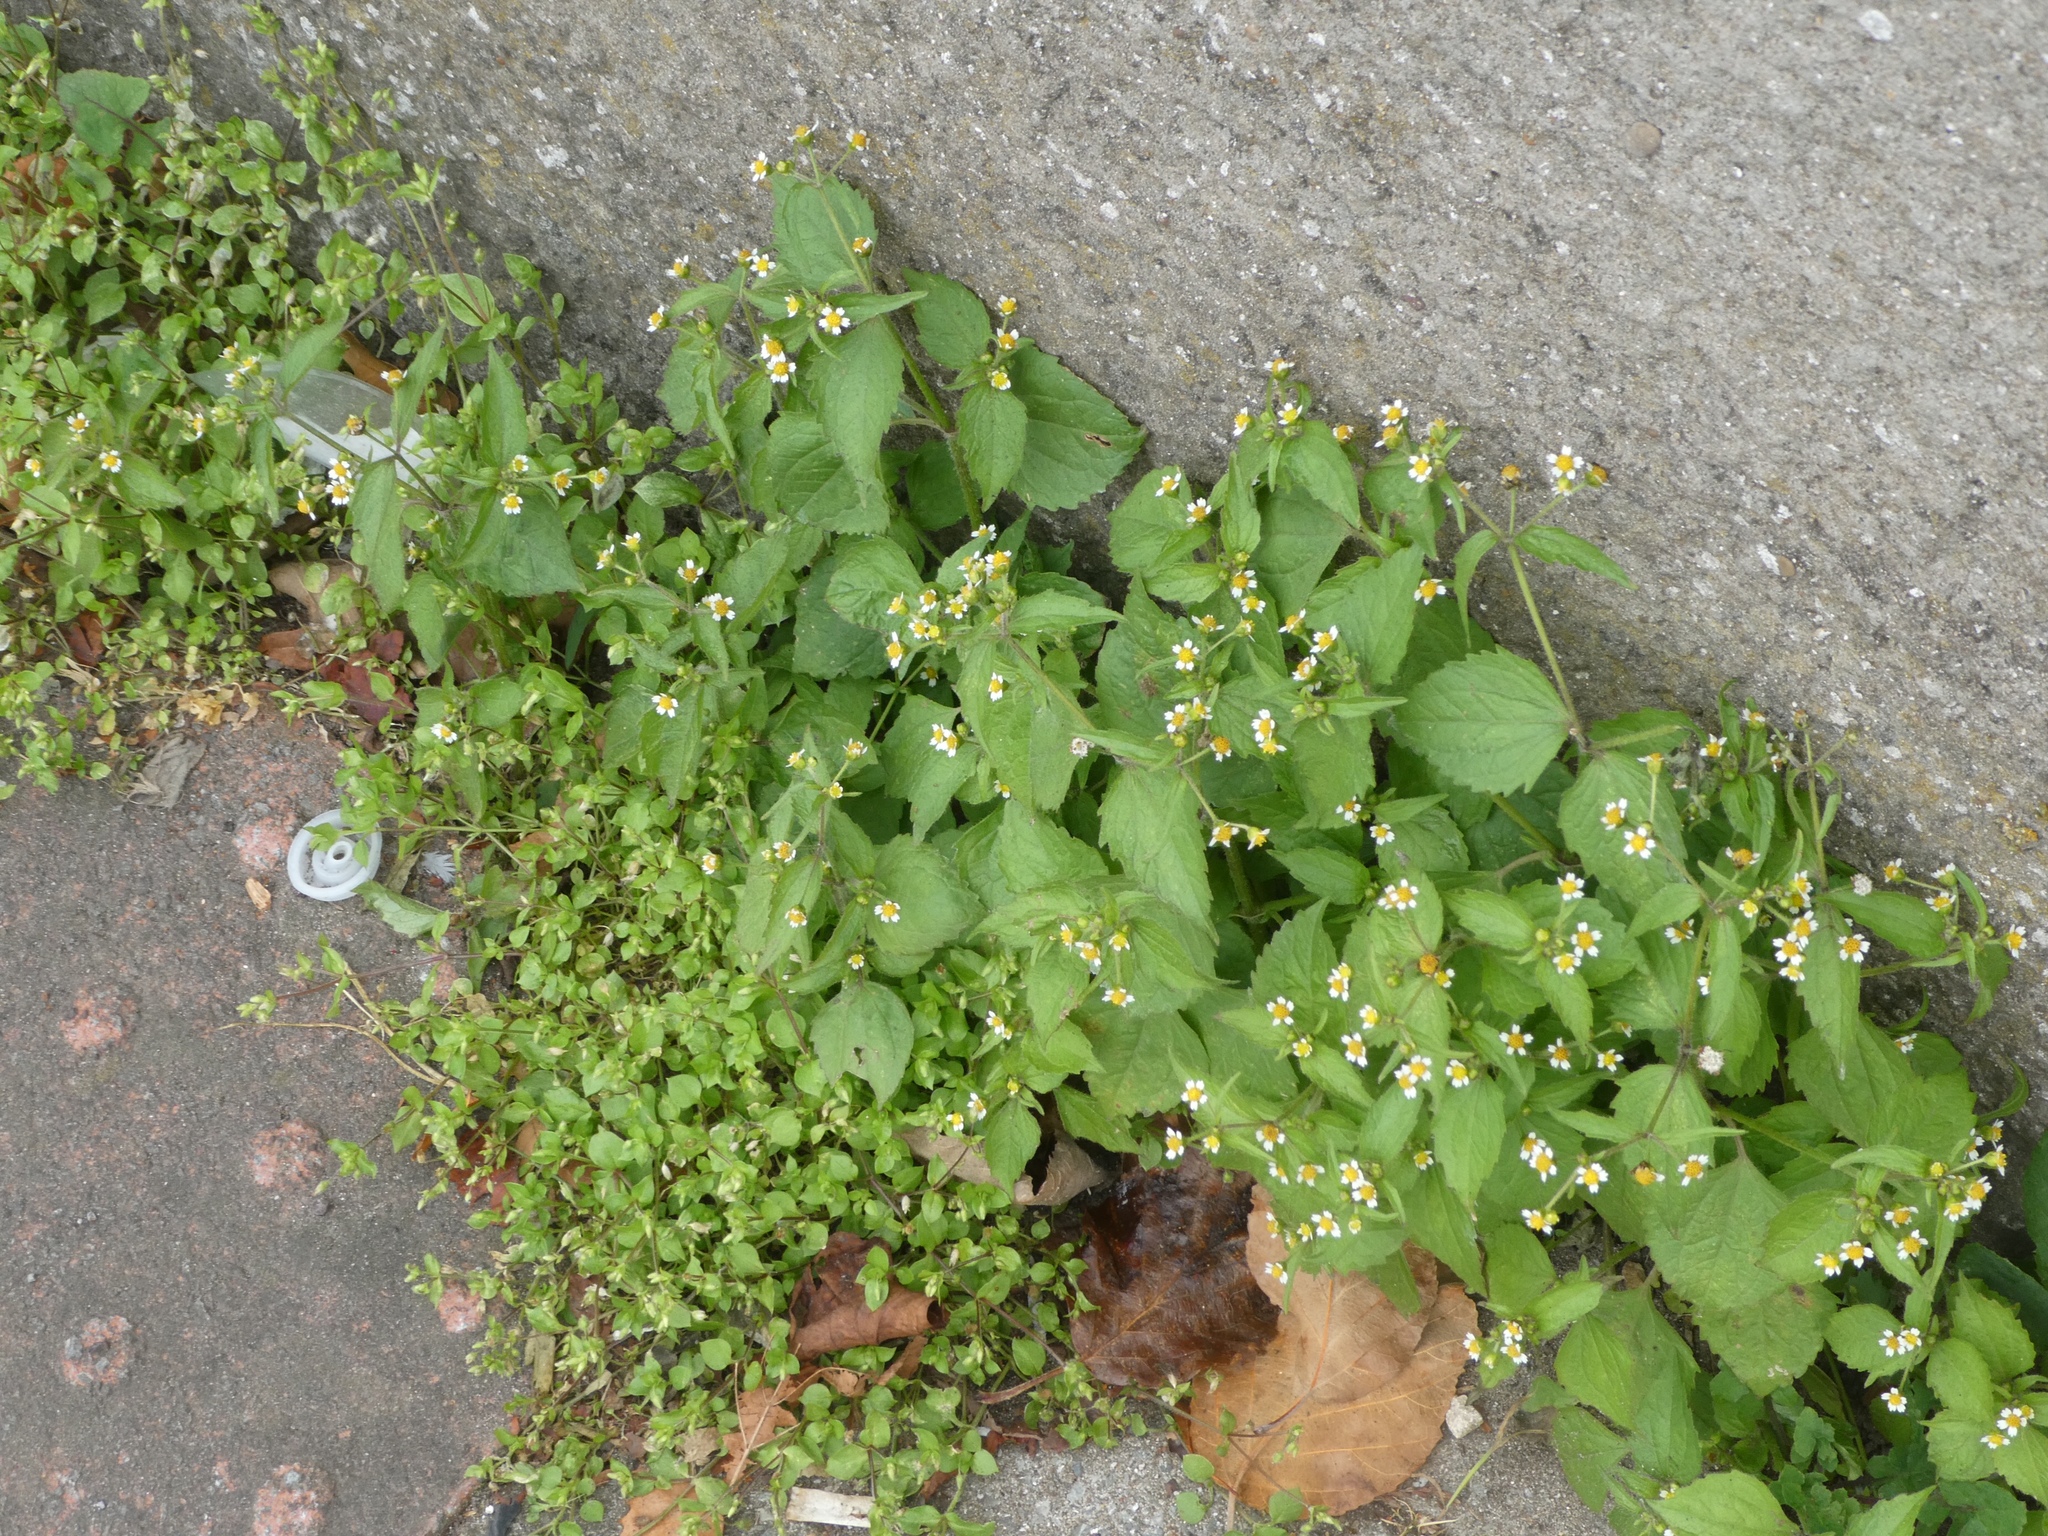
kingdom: Plantae
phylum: Tracheophyta
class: Magnoliopsida
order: Asterales
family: Asteraceae
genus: Galinsoga
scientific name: Galinsoga quadriradiata
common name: Shaggy soldier
